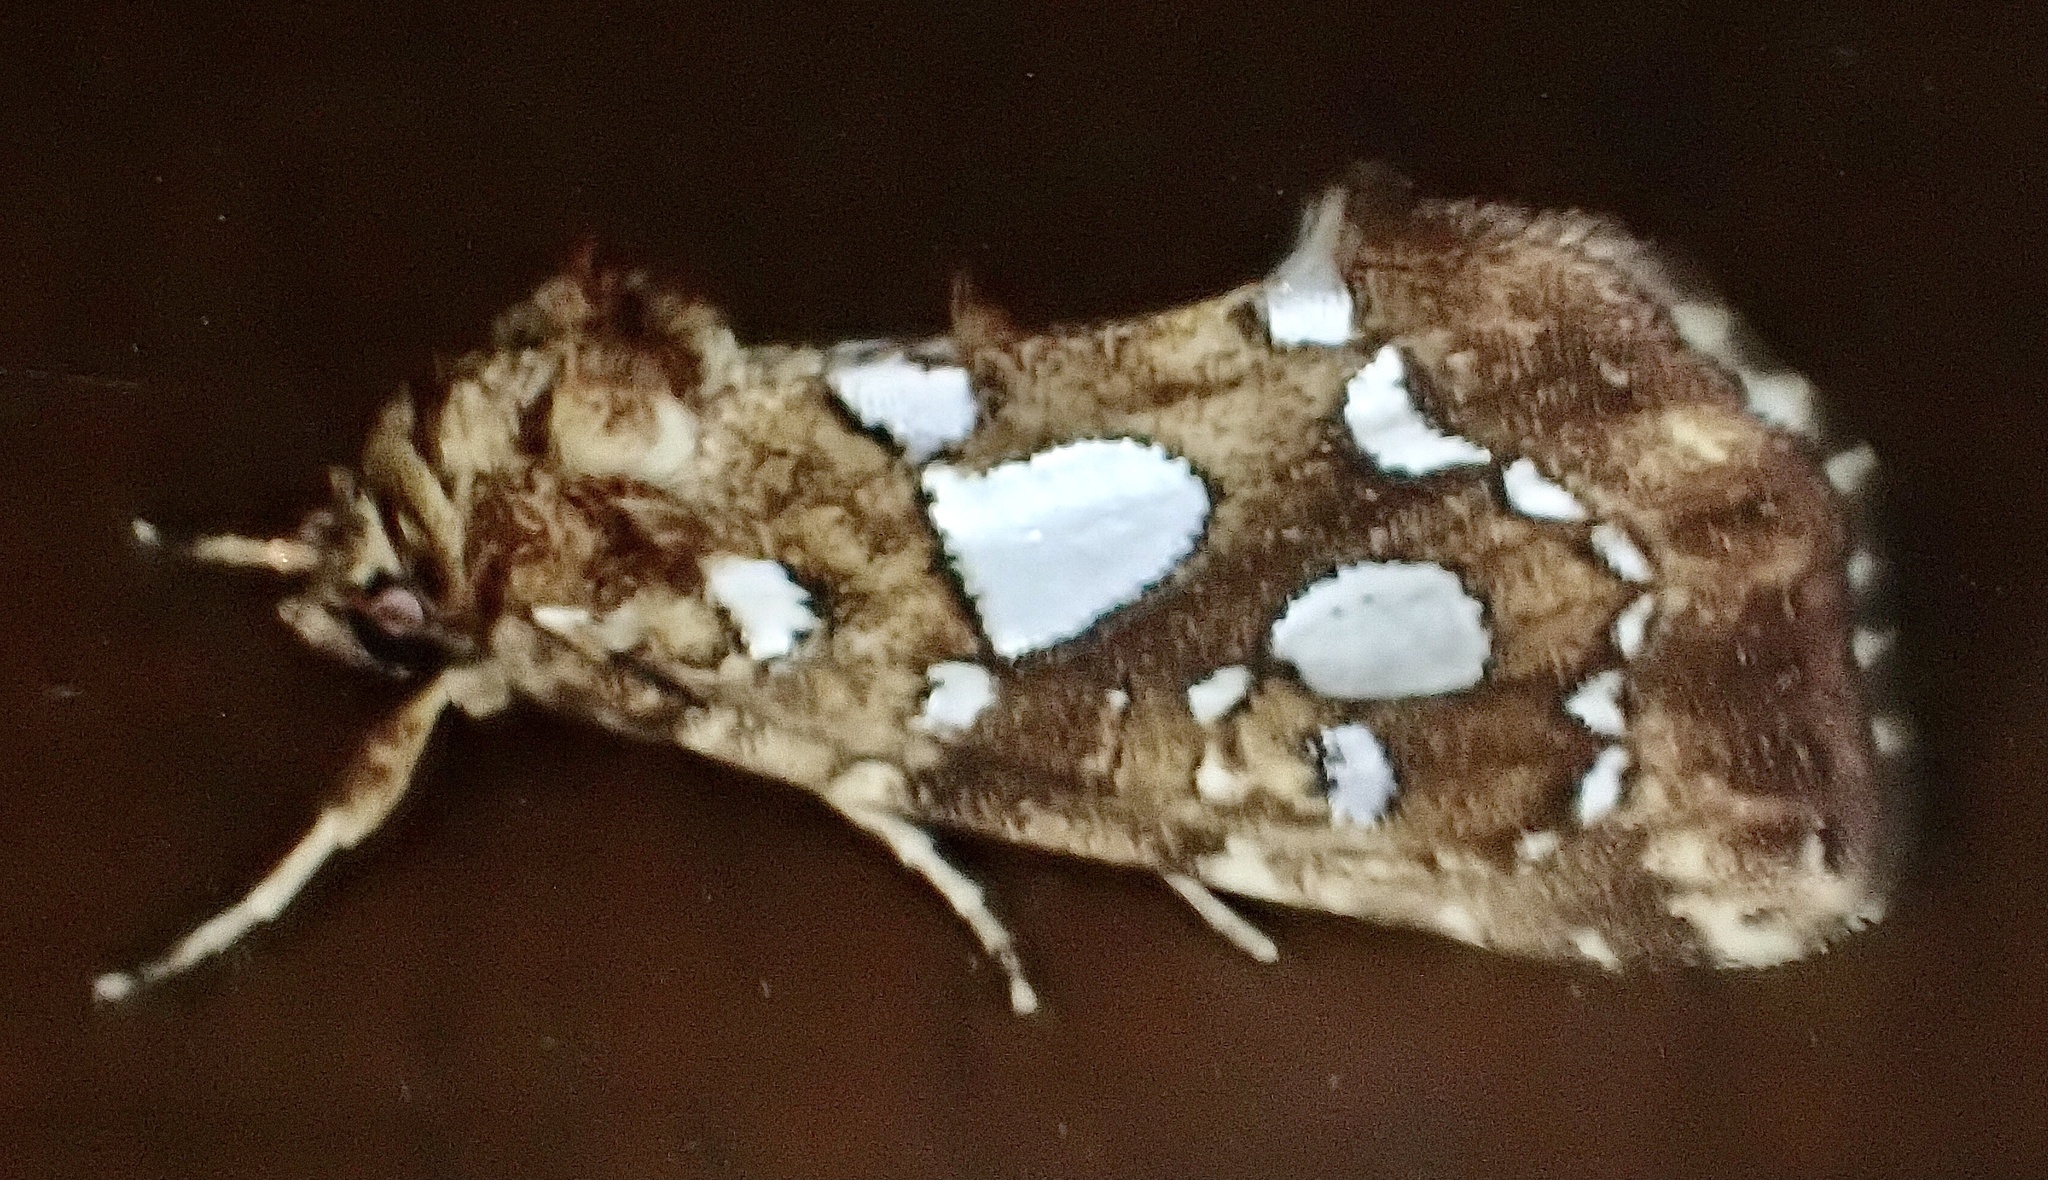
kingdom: Animalia
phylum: Arthropoda
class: Insecta
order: Lepidoptera
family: Noctuidae
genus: Callopistria
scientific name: Callopistria cordata
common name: Silver-spotted fern moth
